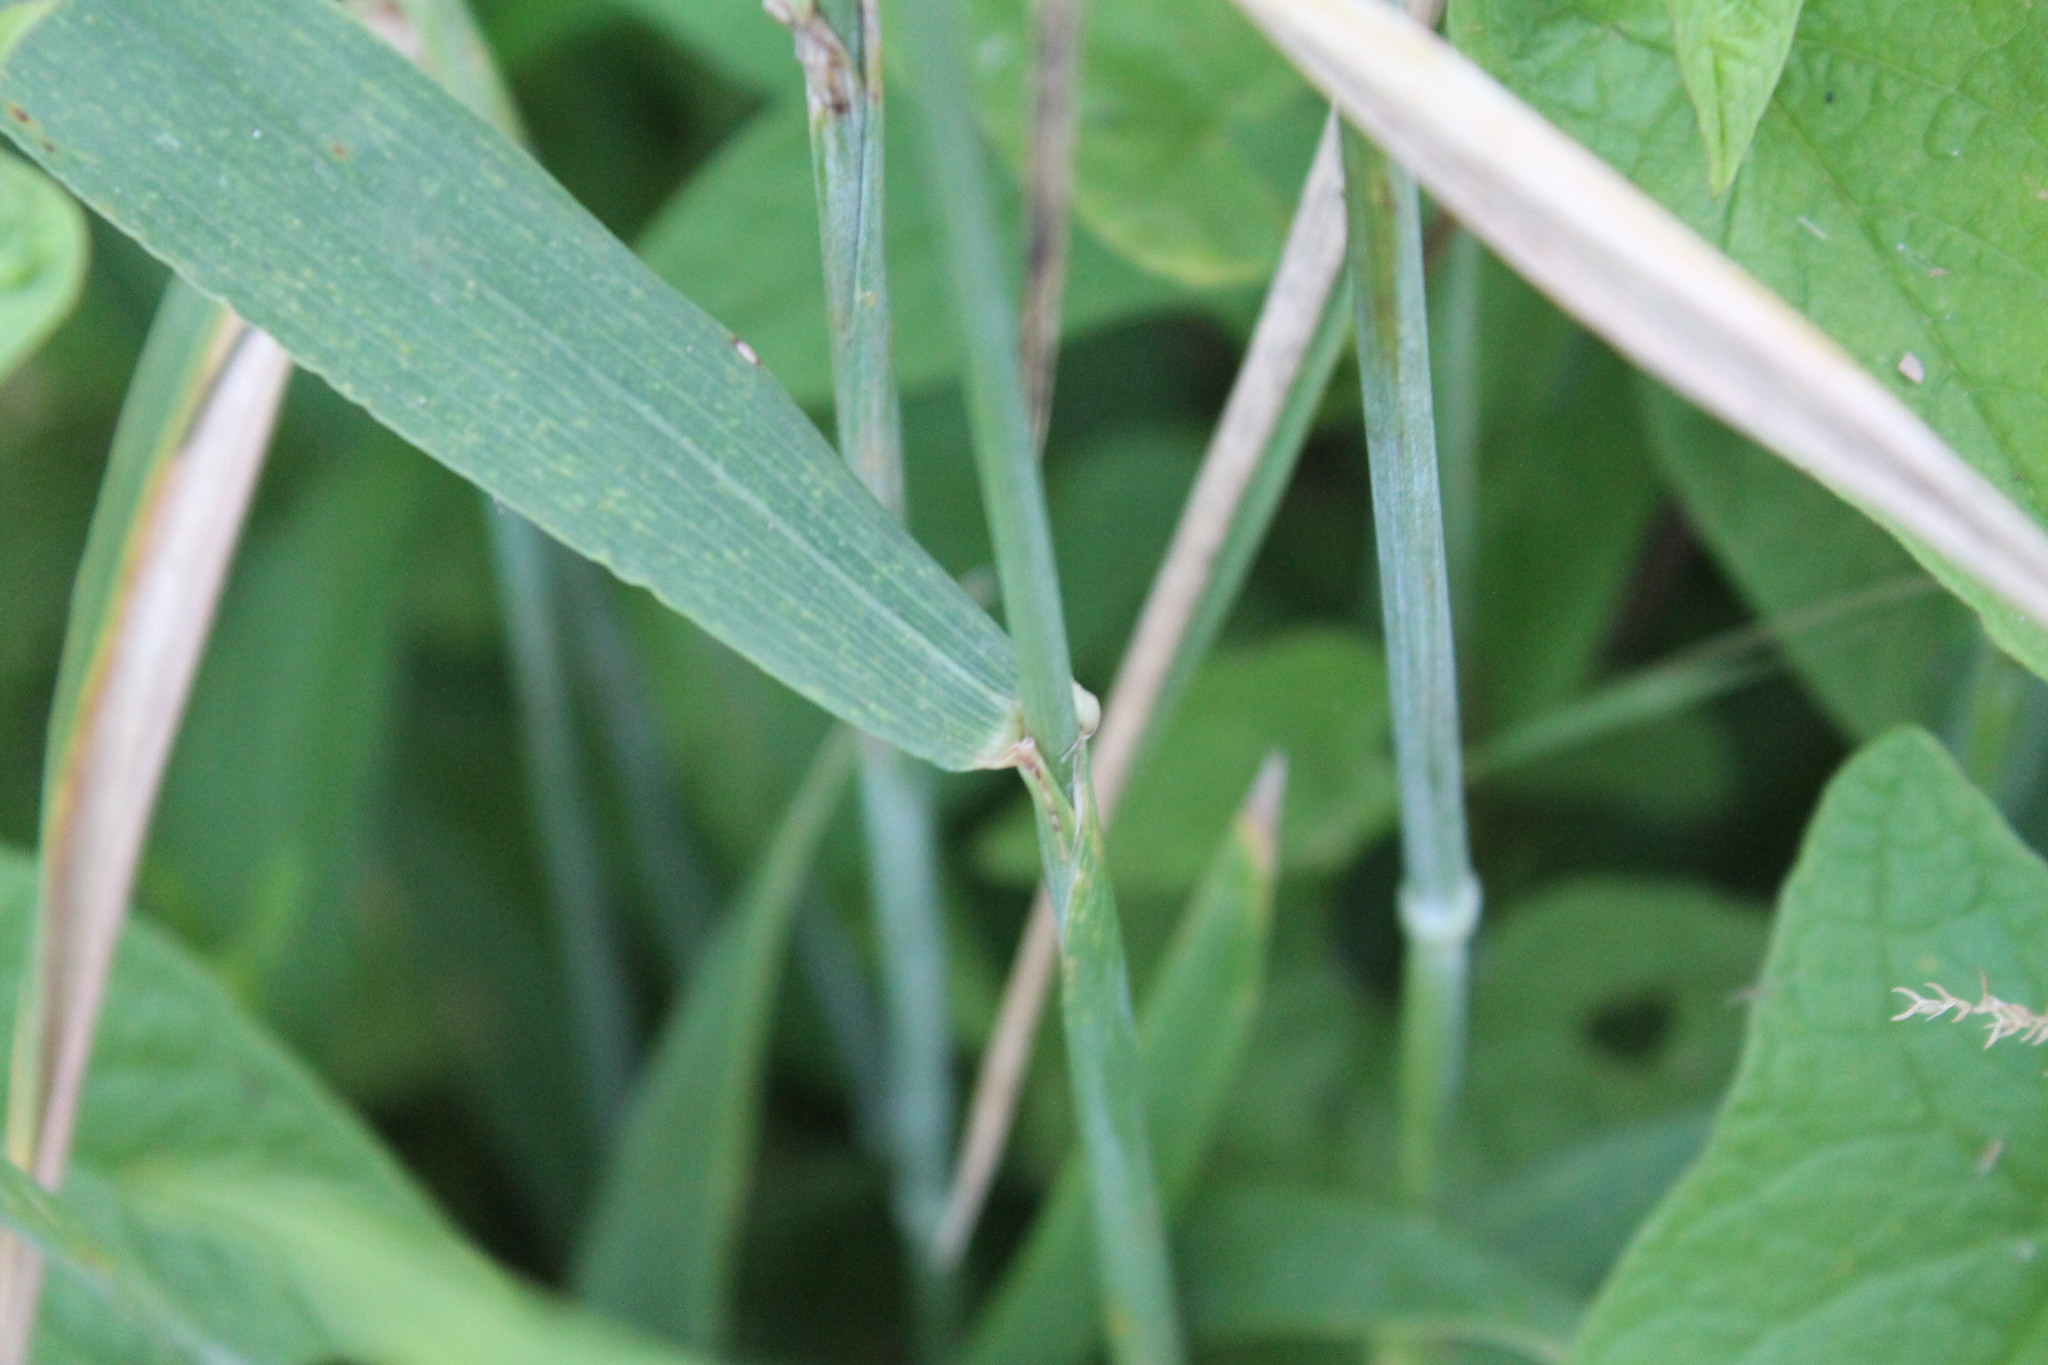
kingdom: Plantae
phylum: Tracheophyta
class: Liliopsida
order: Poales
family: Poaceae
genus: Triticum
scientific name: Triticum aestivum
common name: Common wheat
